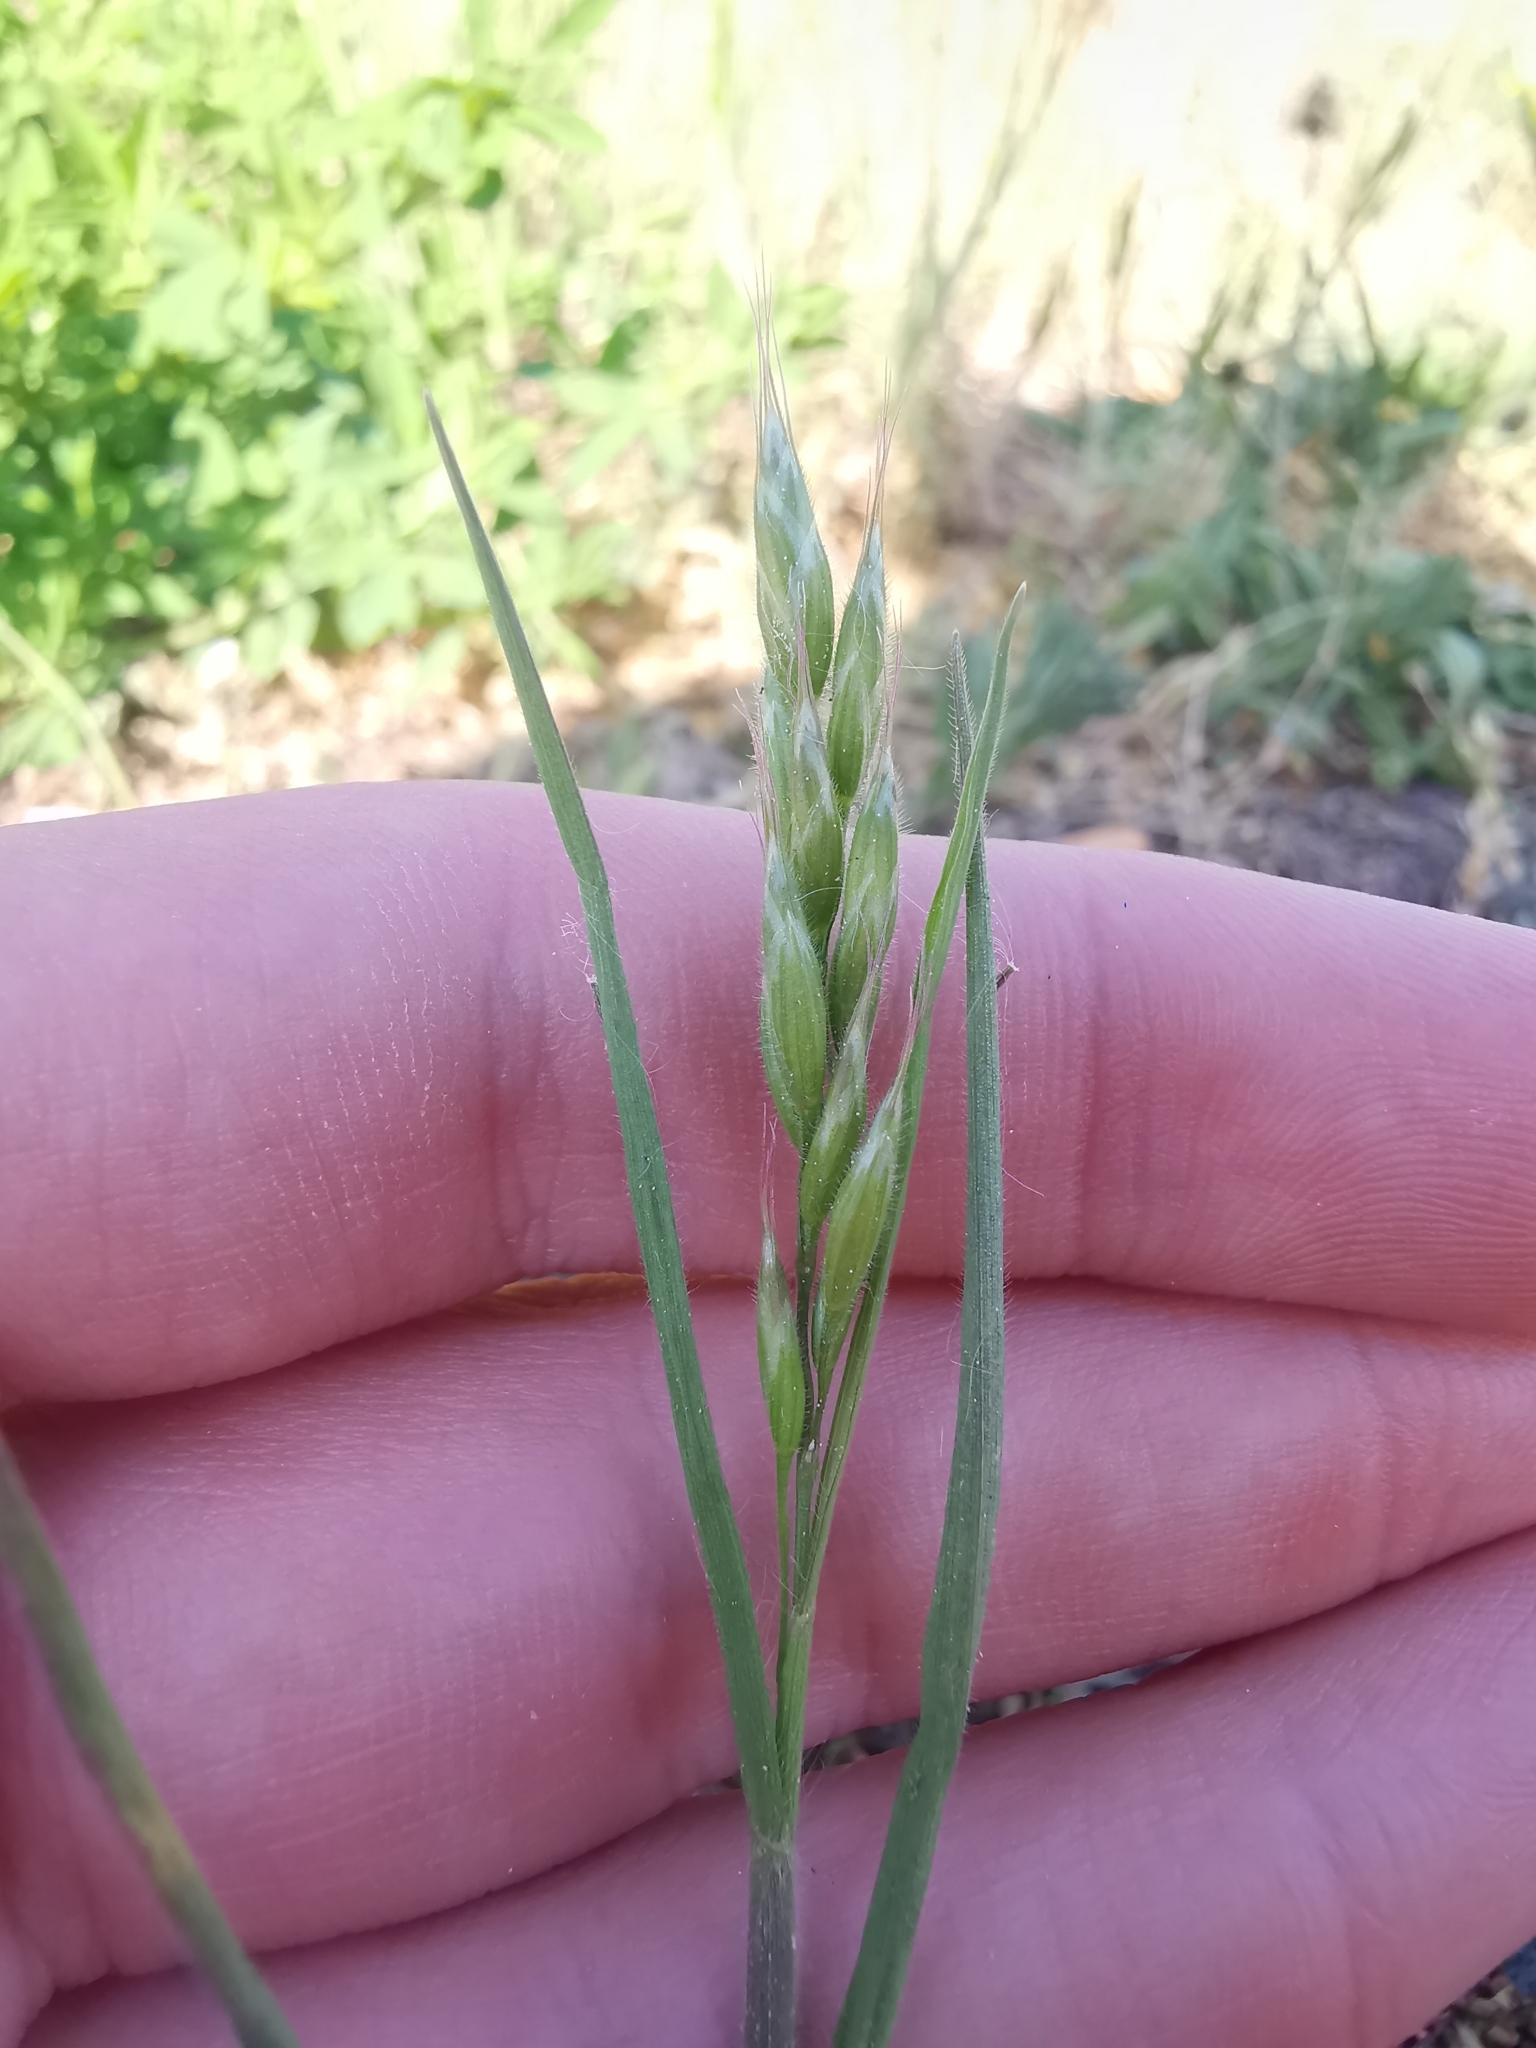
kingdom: Plantae
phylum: Tracheophyta
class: Liliopsida
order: Poales
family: Poaceae
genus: Bromus
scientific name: Bromus hordeaceus
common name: Soft brome
